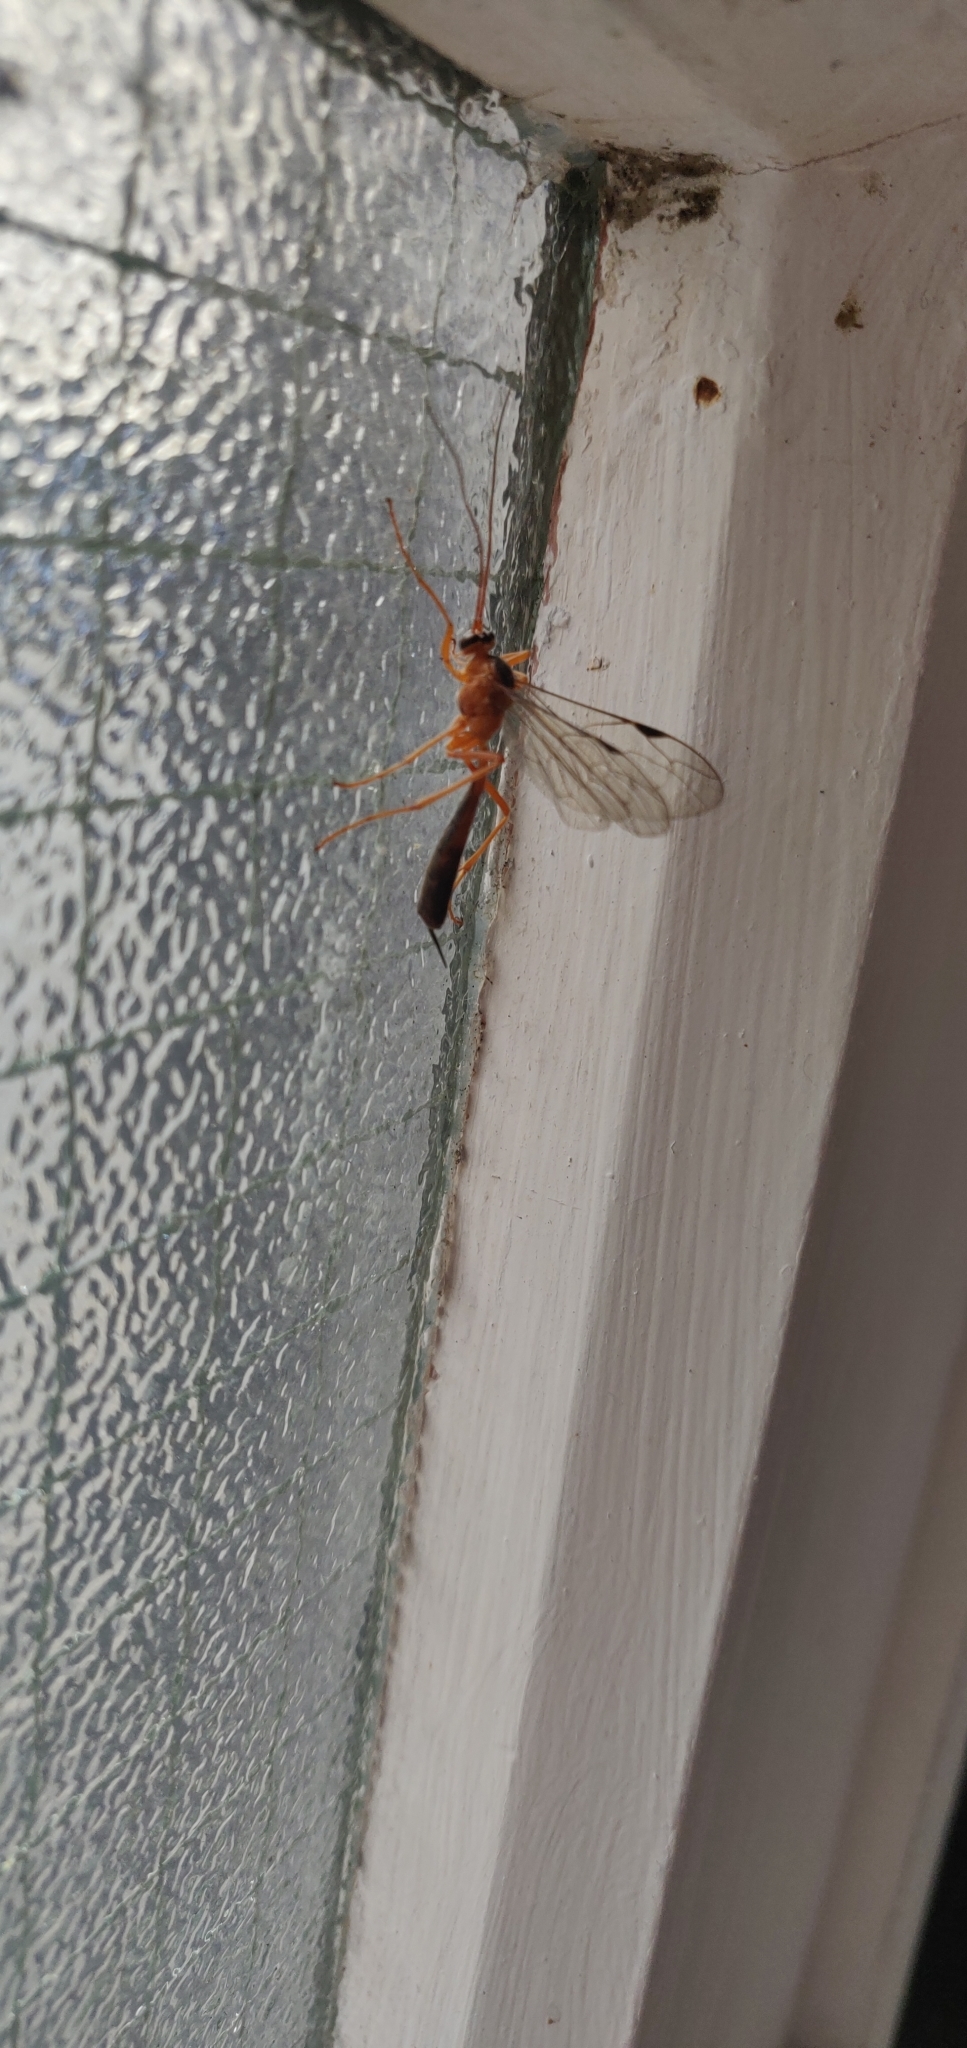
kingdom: Animalia
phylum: Arthropoda
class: Insecta
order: Hymenoptera
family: Ichneumonidae
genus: Netelia
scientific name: Netelia ephippiata
